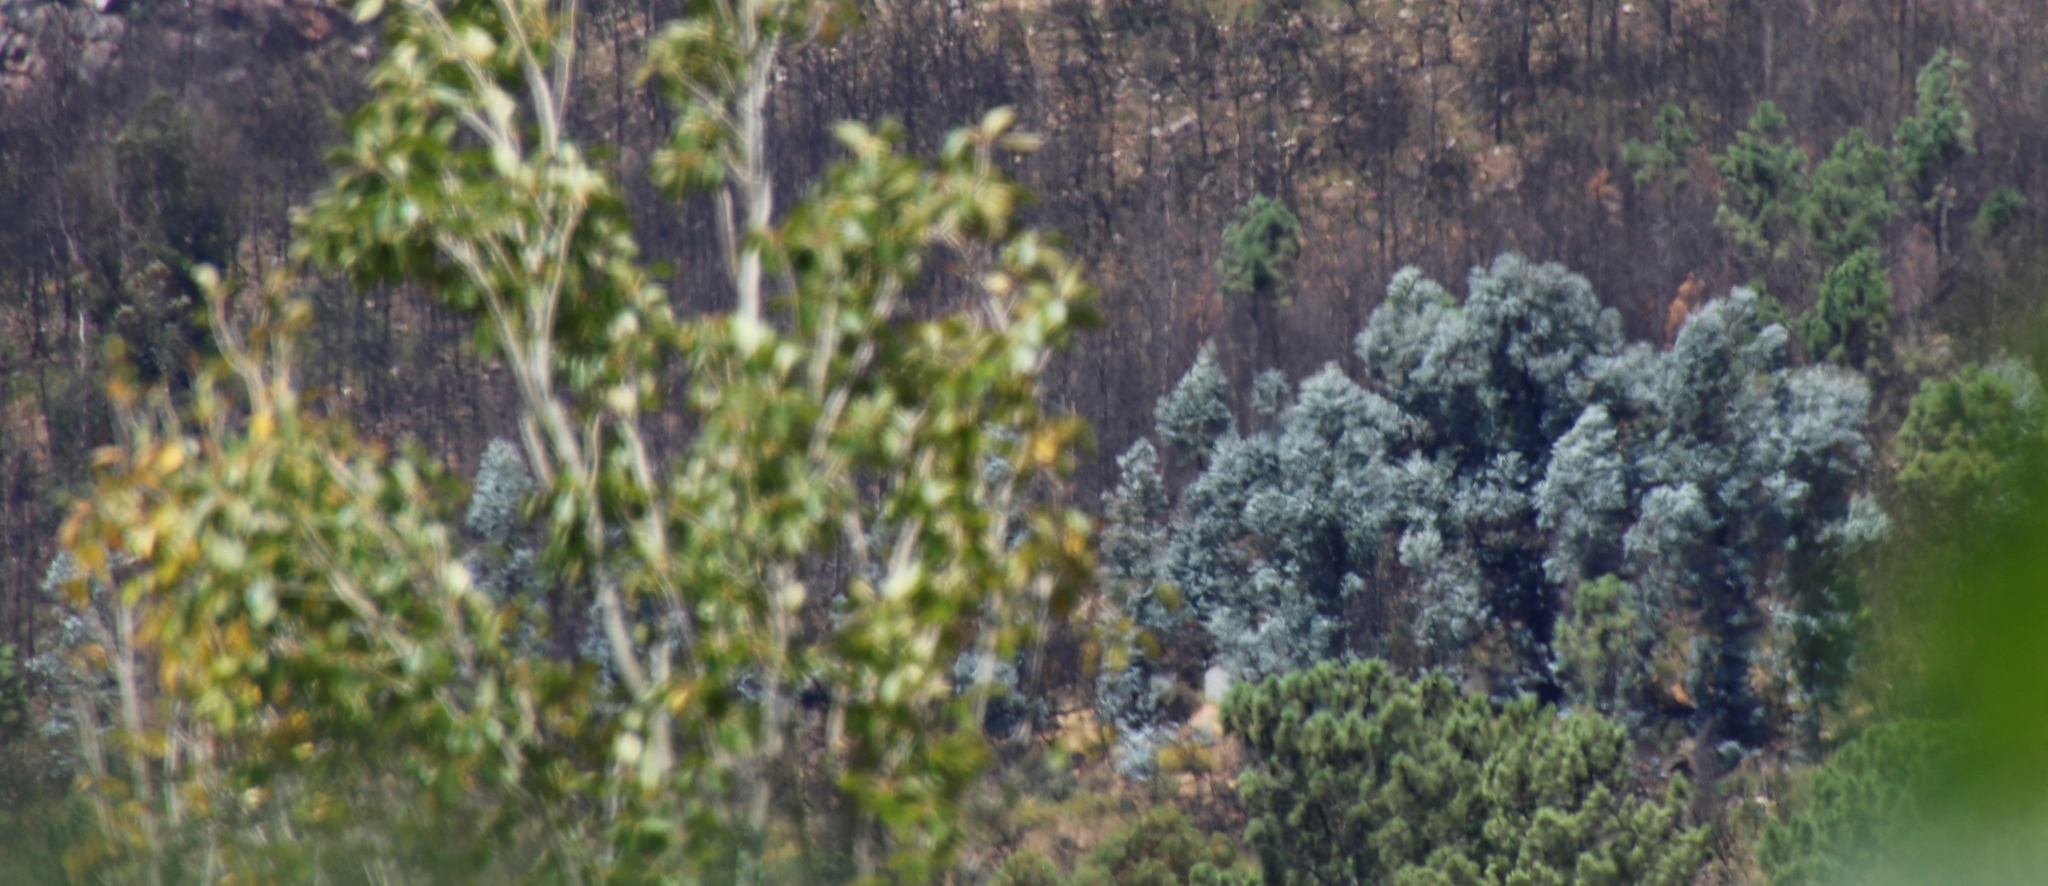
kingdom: Plantae
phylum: Tracheophyta
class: Magnoliopsida
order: Myrtales
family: Myrtaceae
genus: Eucalyptus
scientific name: Eucalyptus cinerea
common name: Argyle apple
